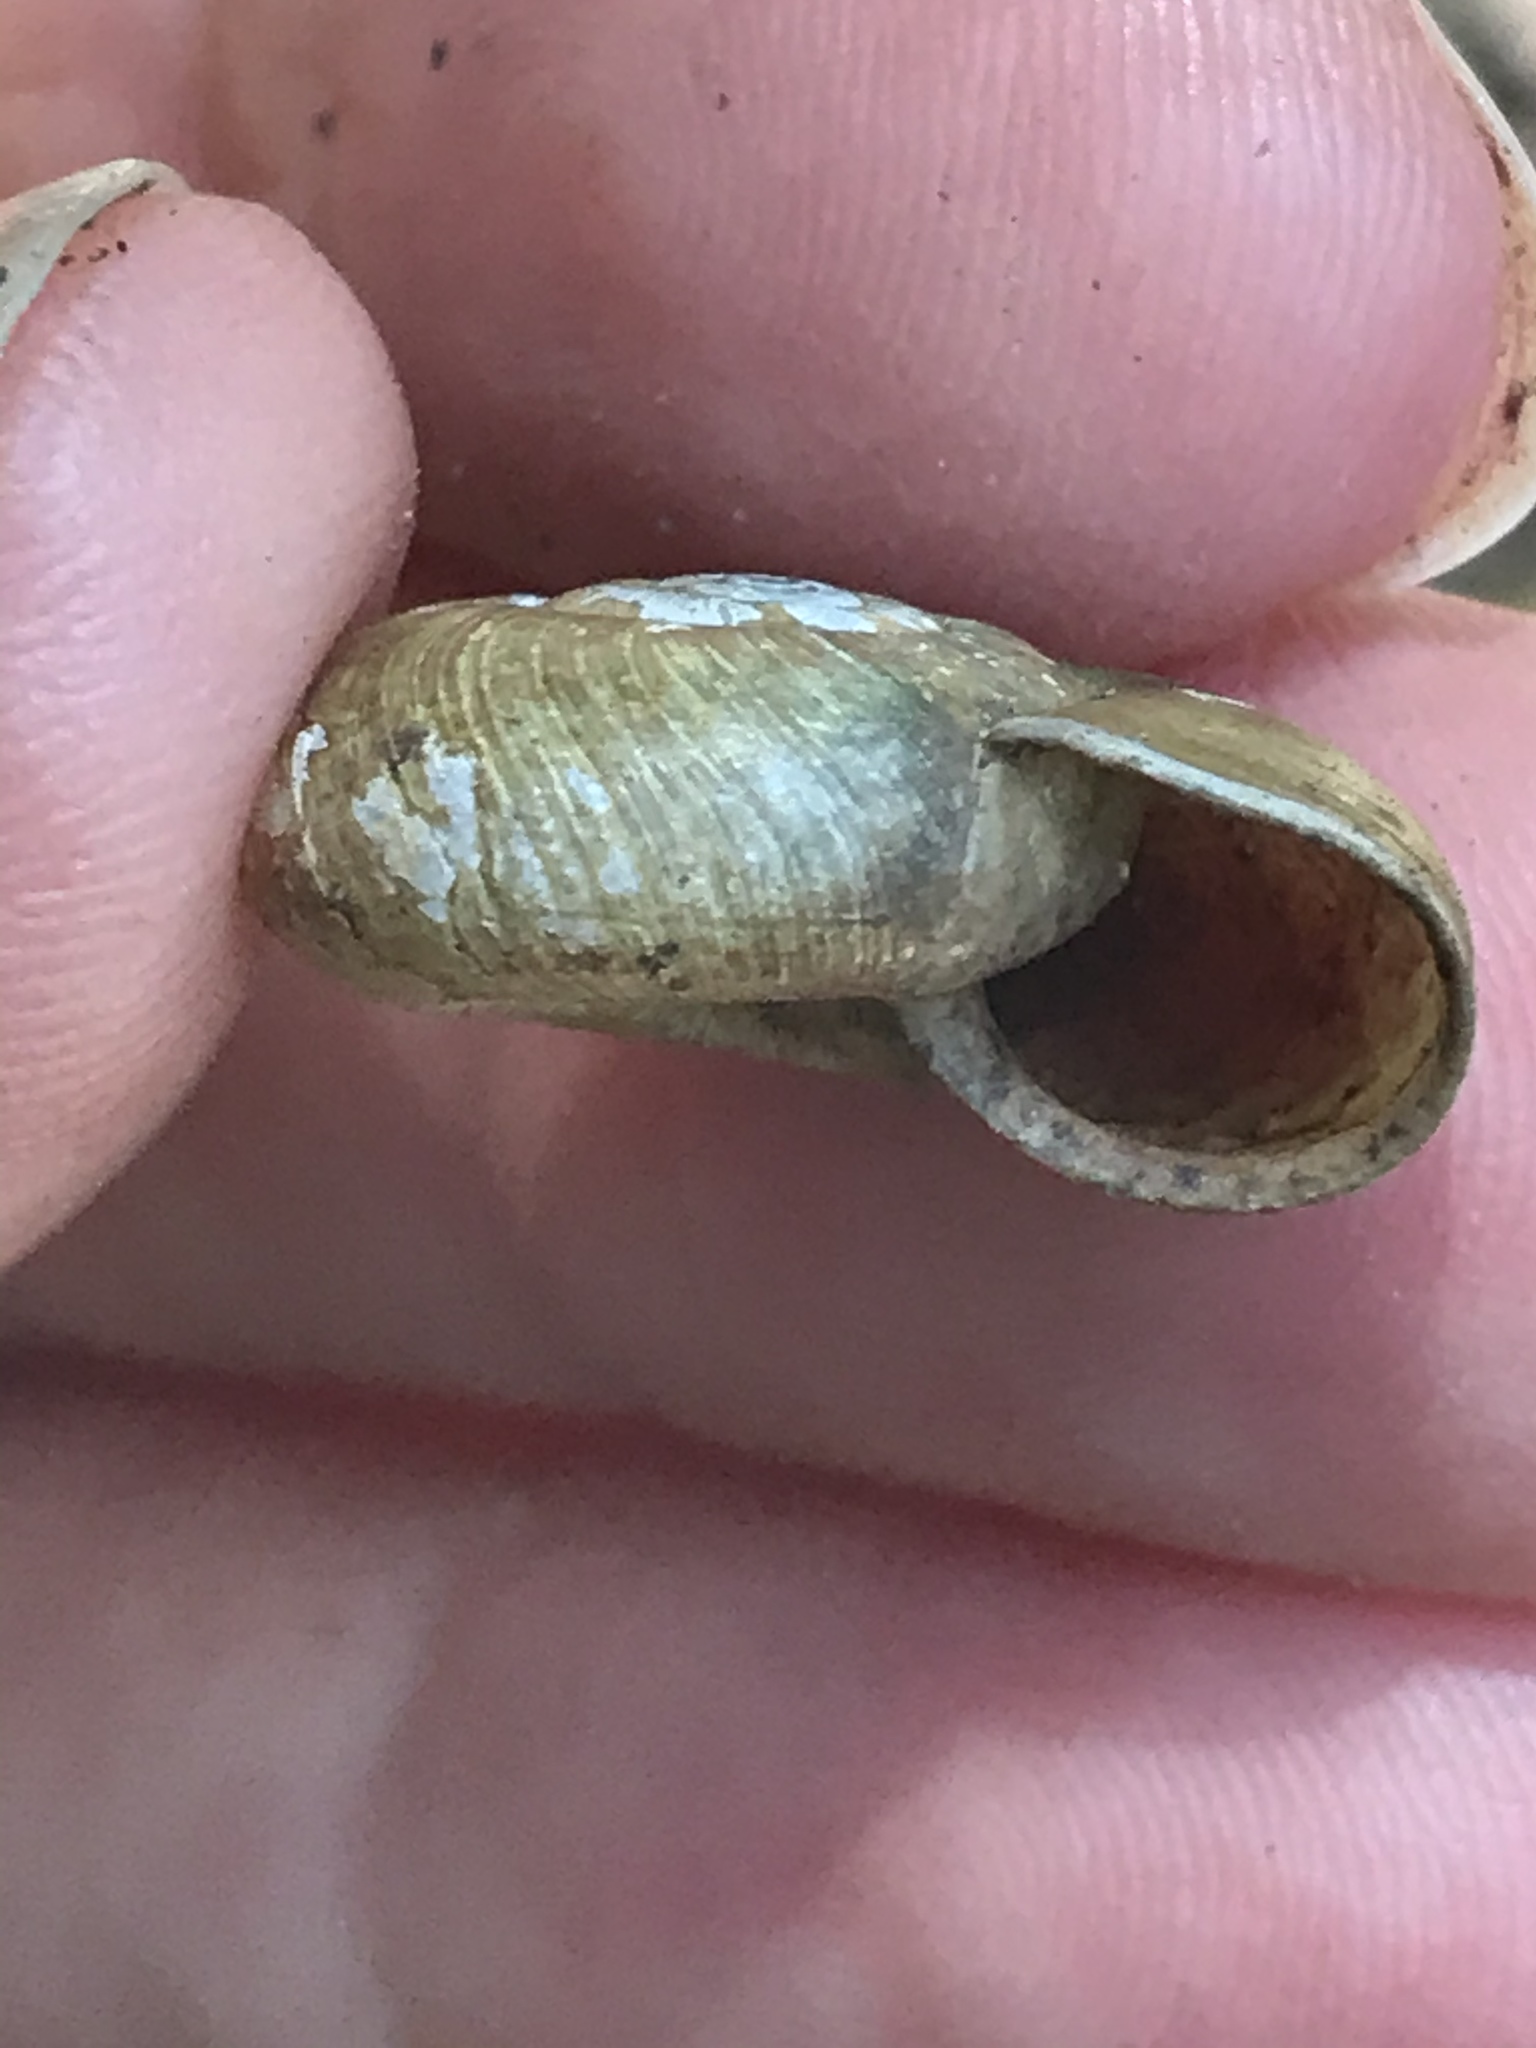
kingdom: Animalia
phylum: Mollusca
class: Gastropoda
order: Stylommatophora
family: Haplotrematidae
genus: Haplotrema
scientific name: Haplotrema minimum
